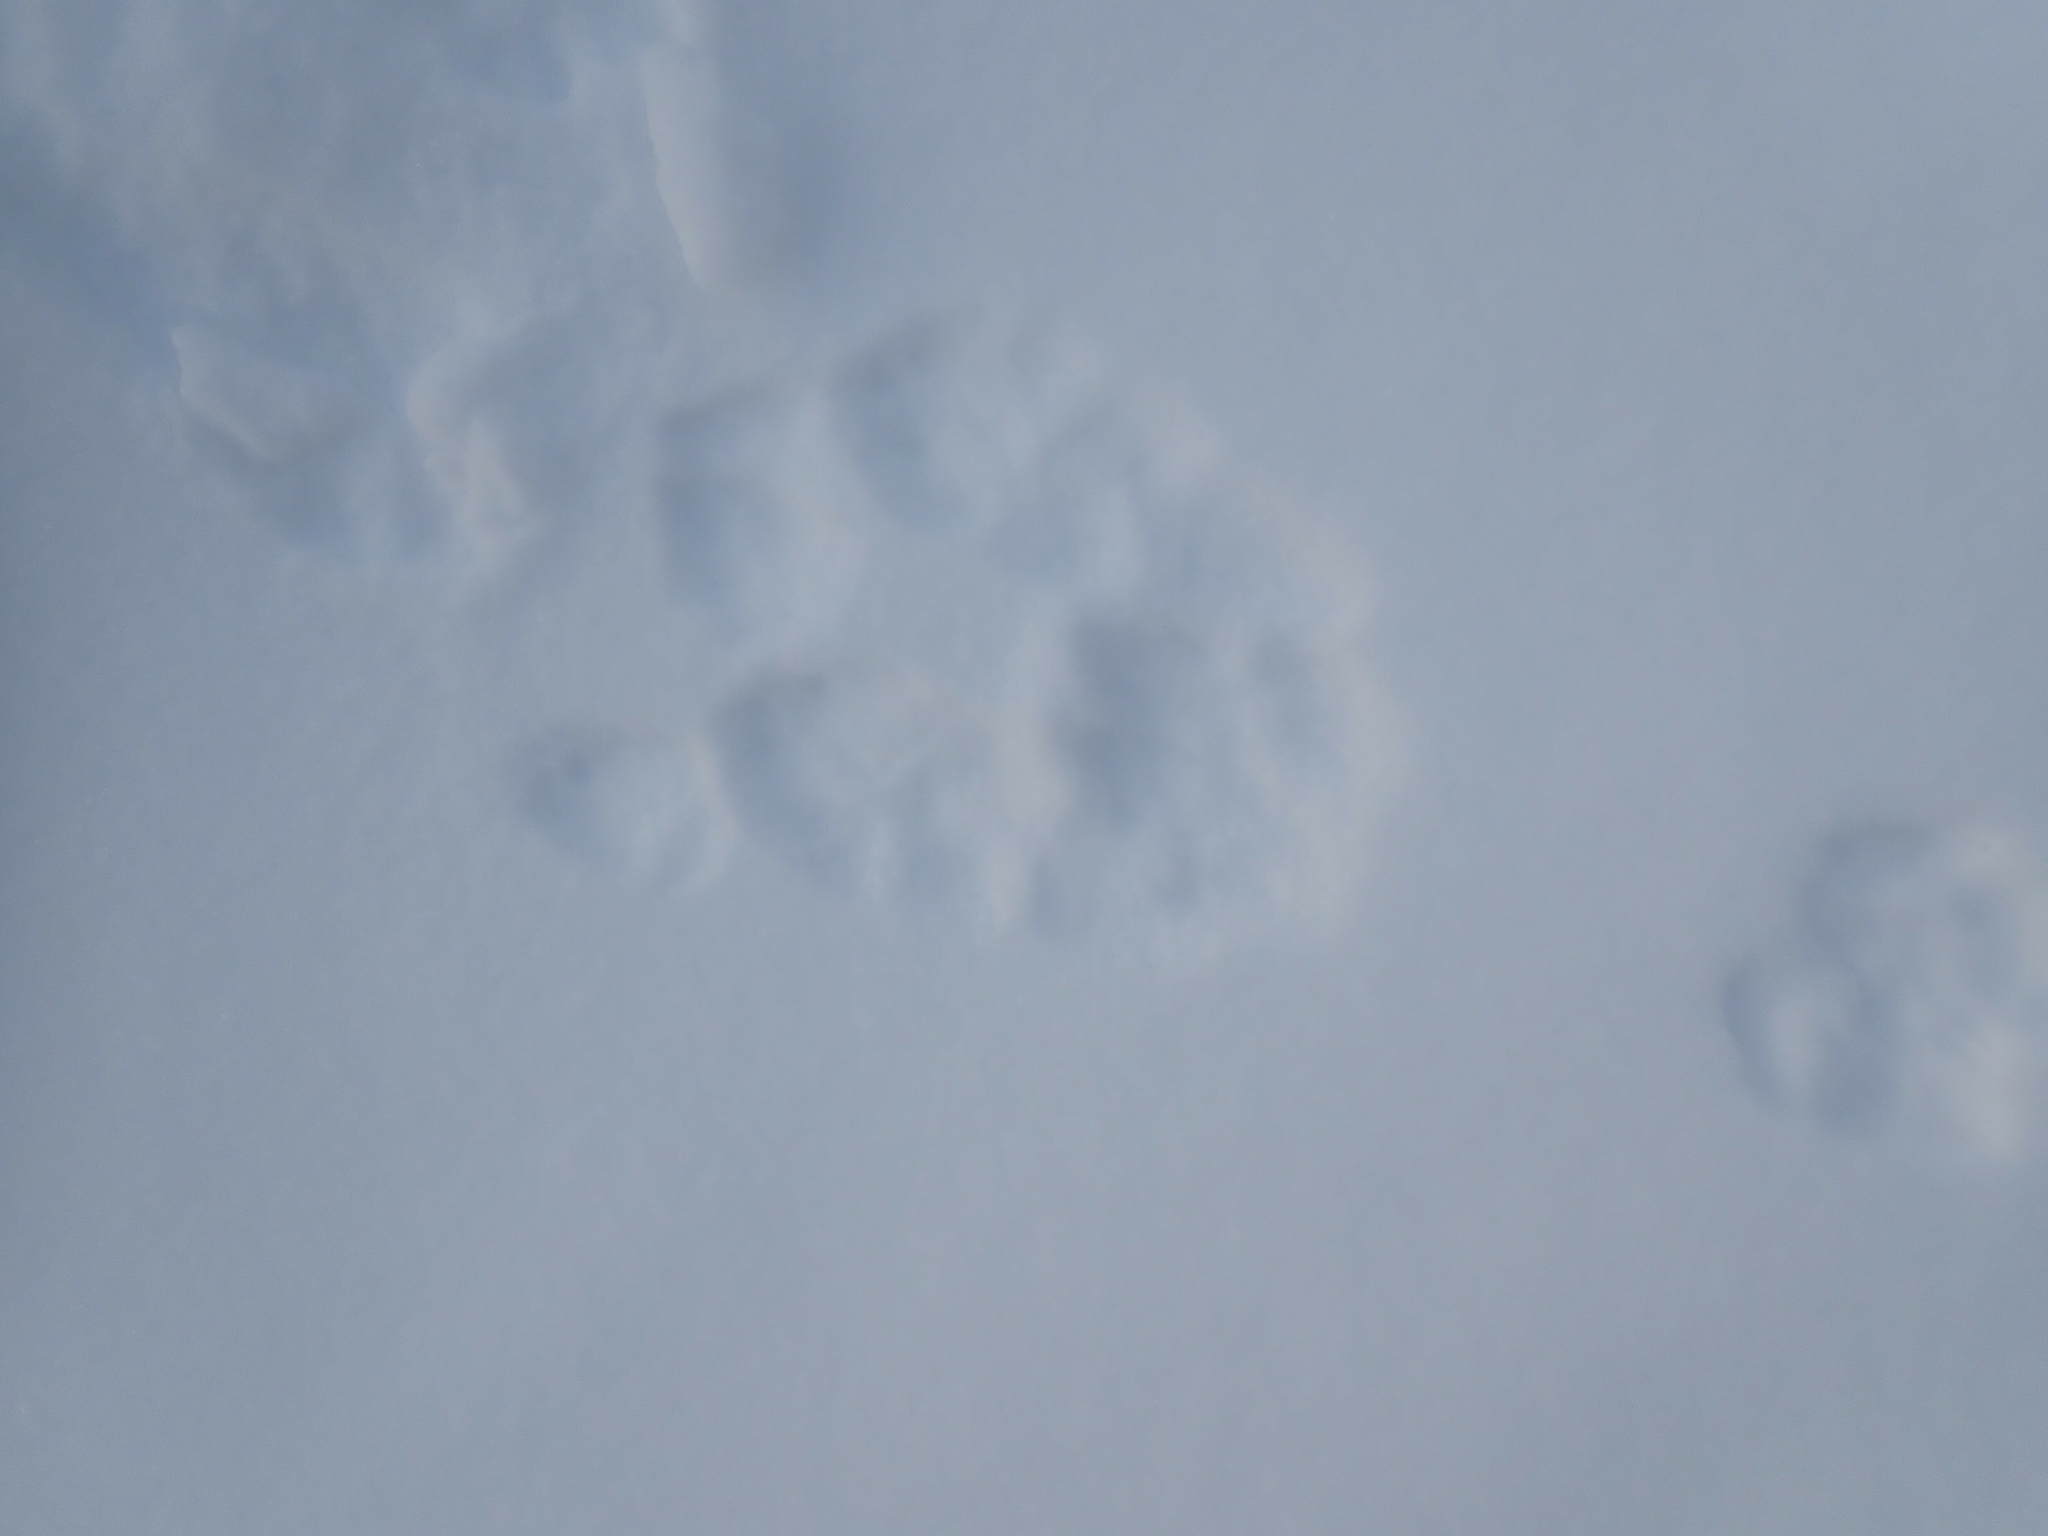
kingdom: Animalia
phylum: Chordata
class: Mammalia
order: Lagomorpha
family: Leporidae
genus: Lepus
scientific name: Lepus americanus
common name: Snowshoe hare
